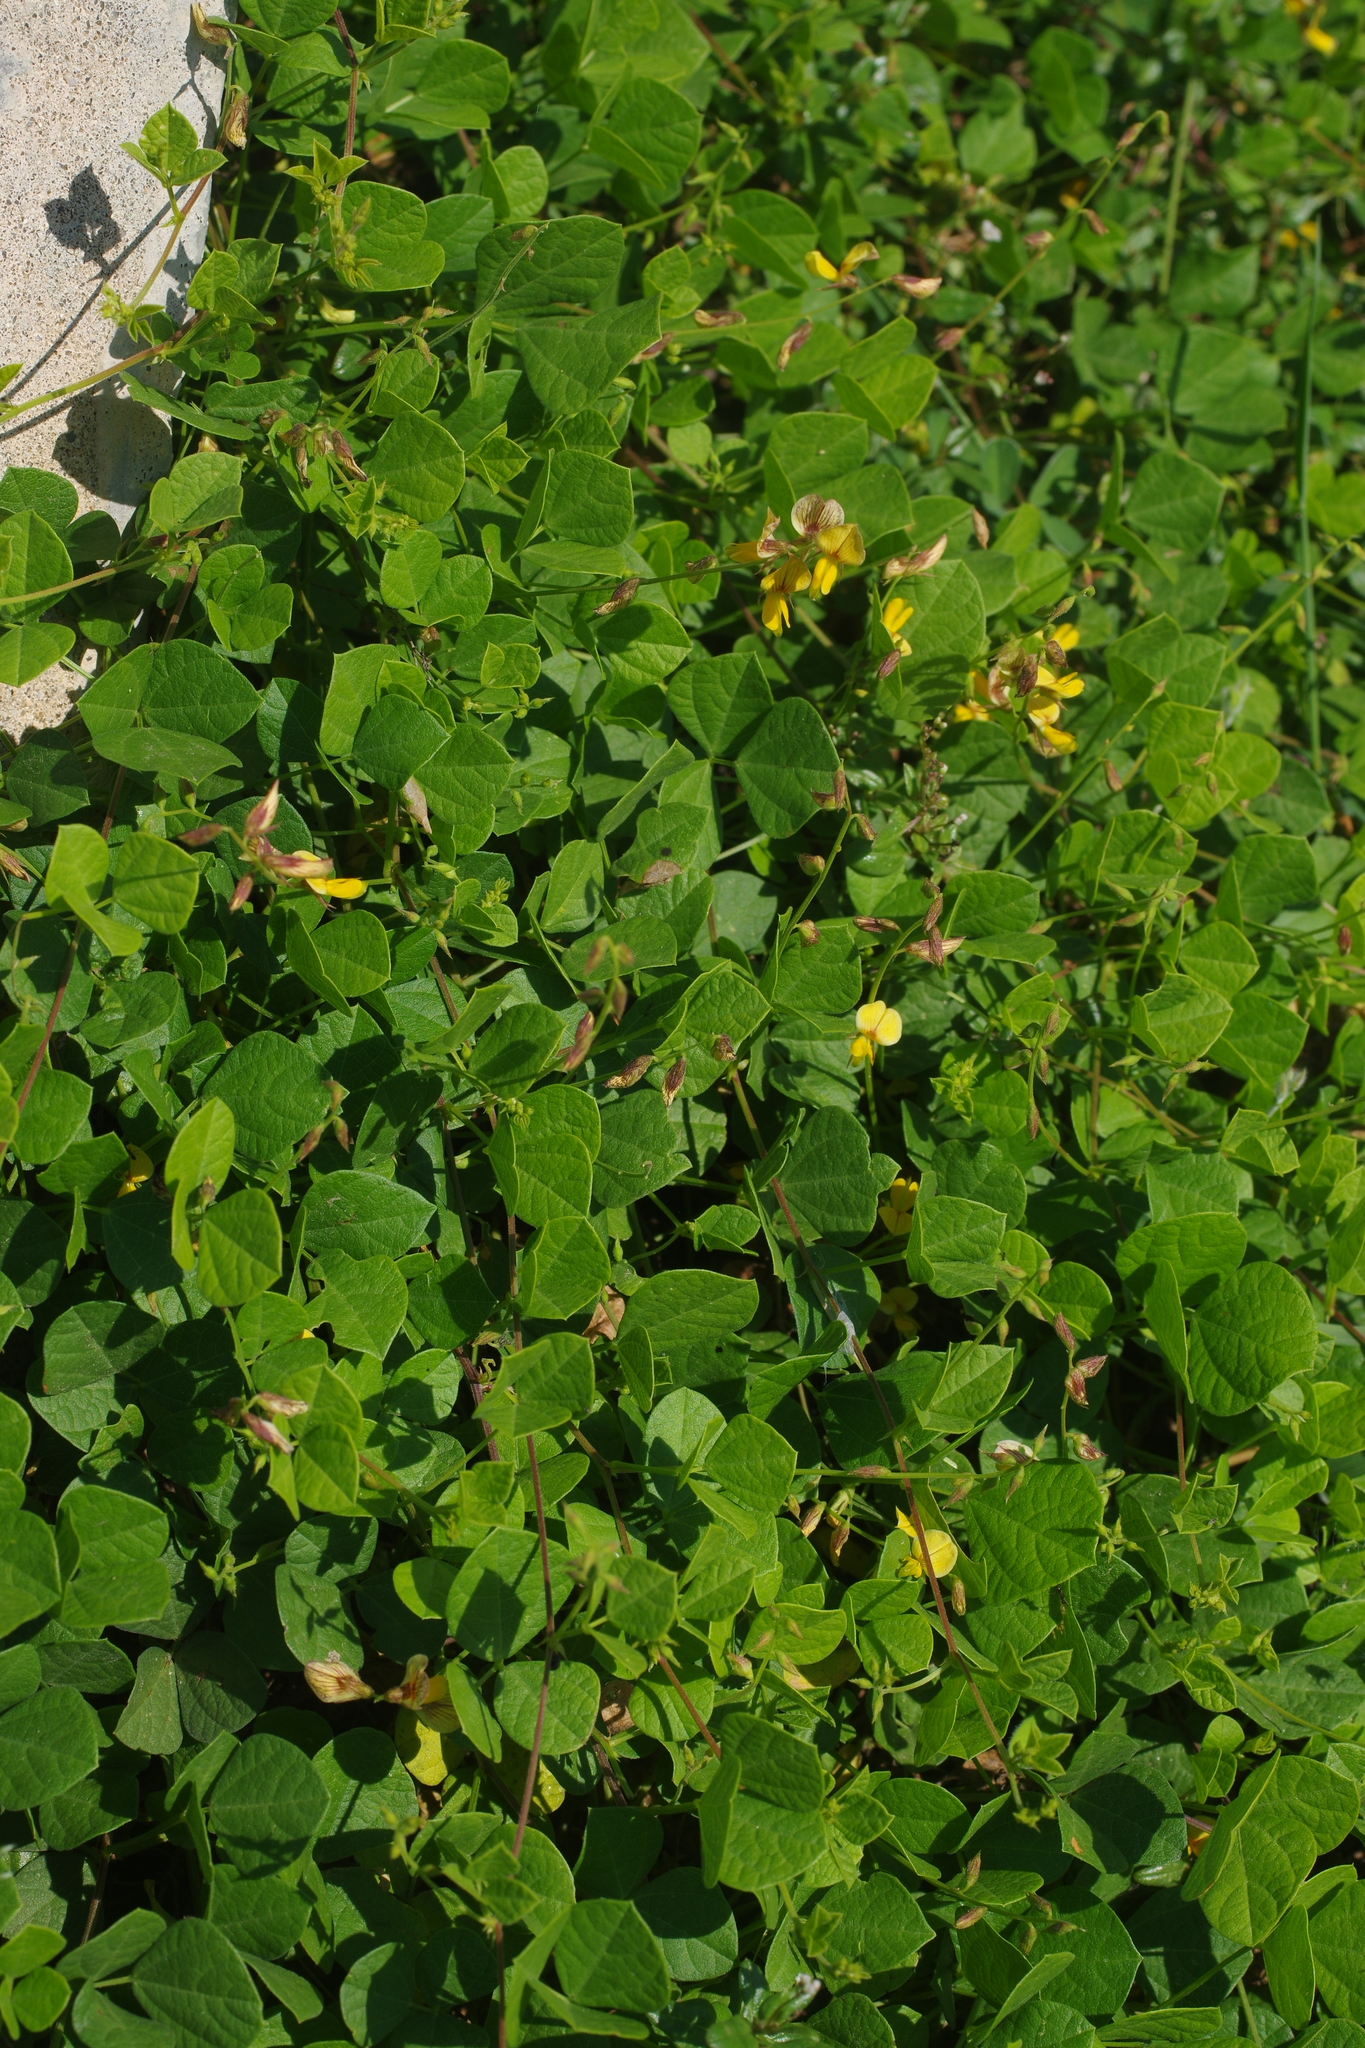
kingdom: Plantae
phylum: Tracheophyta
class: Magnoliopsida
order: Fabales
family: Fabaceae
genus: Rhynchosia
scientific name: Rhynchosia minima
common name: Least snoutbean
